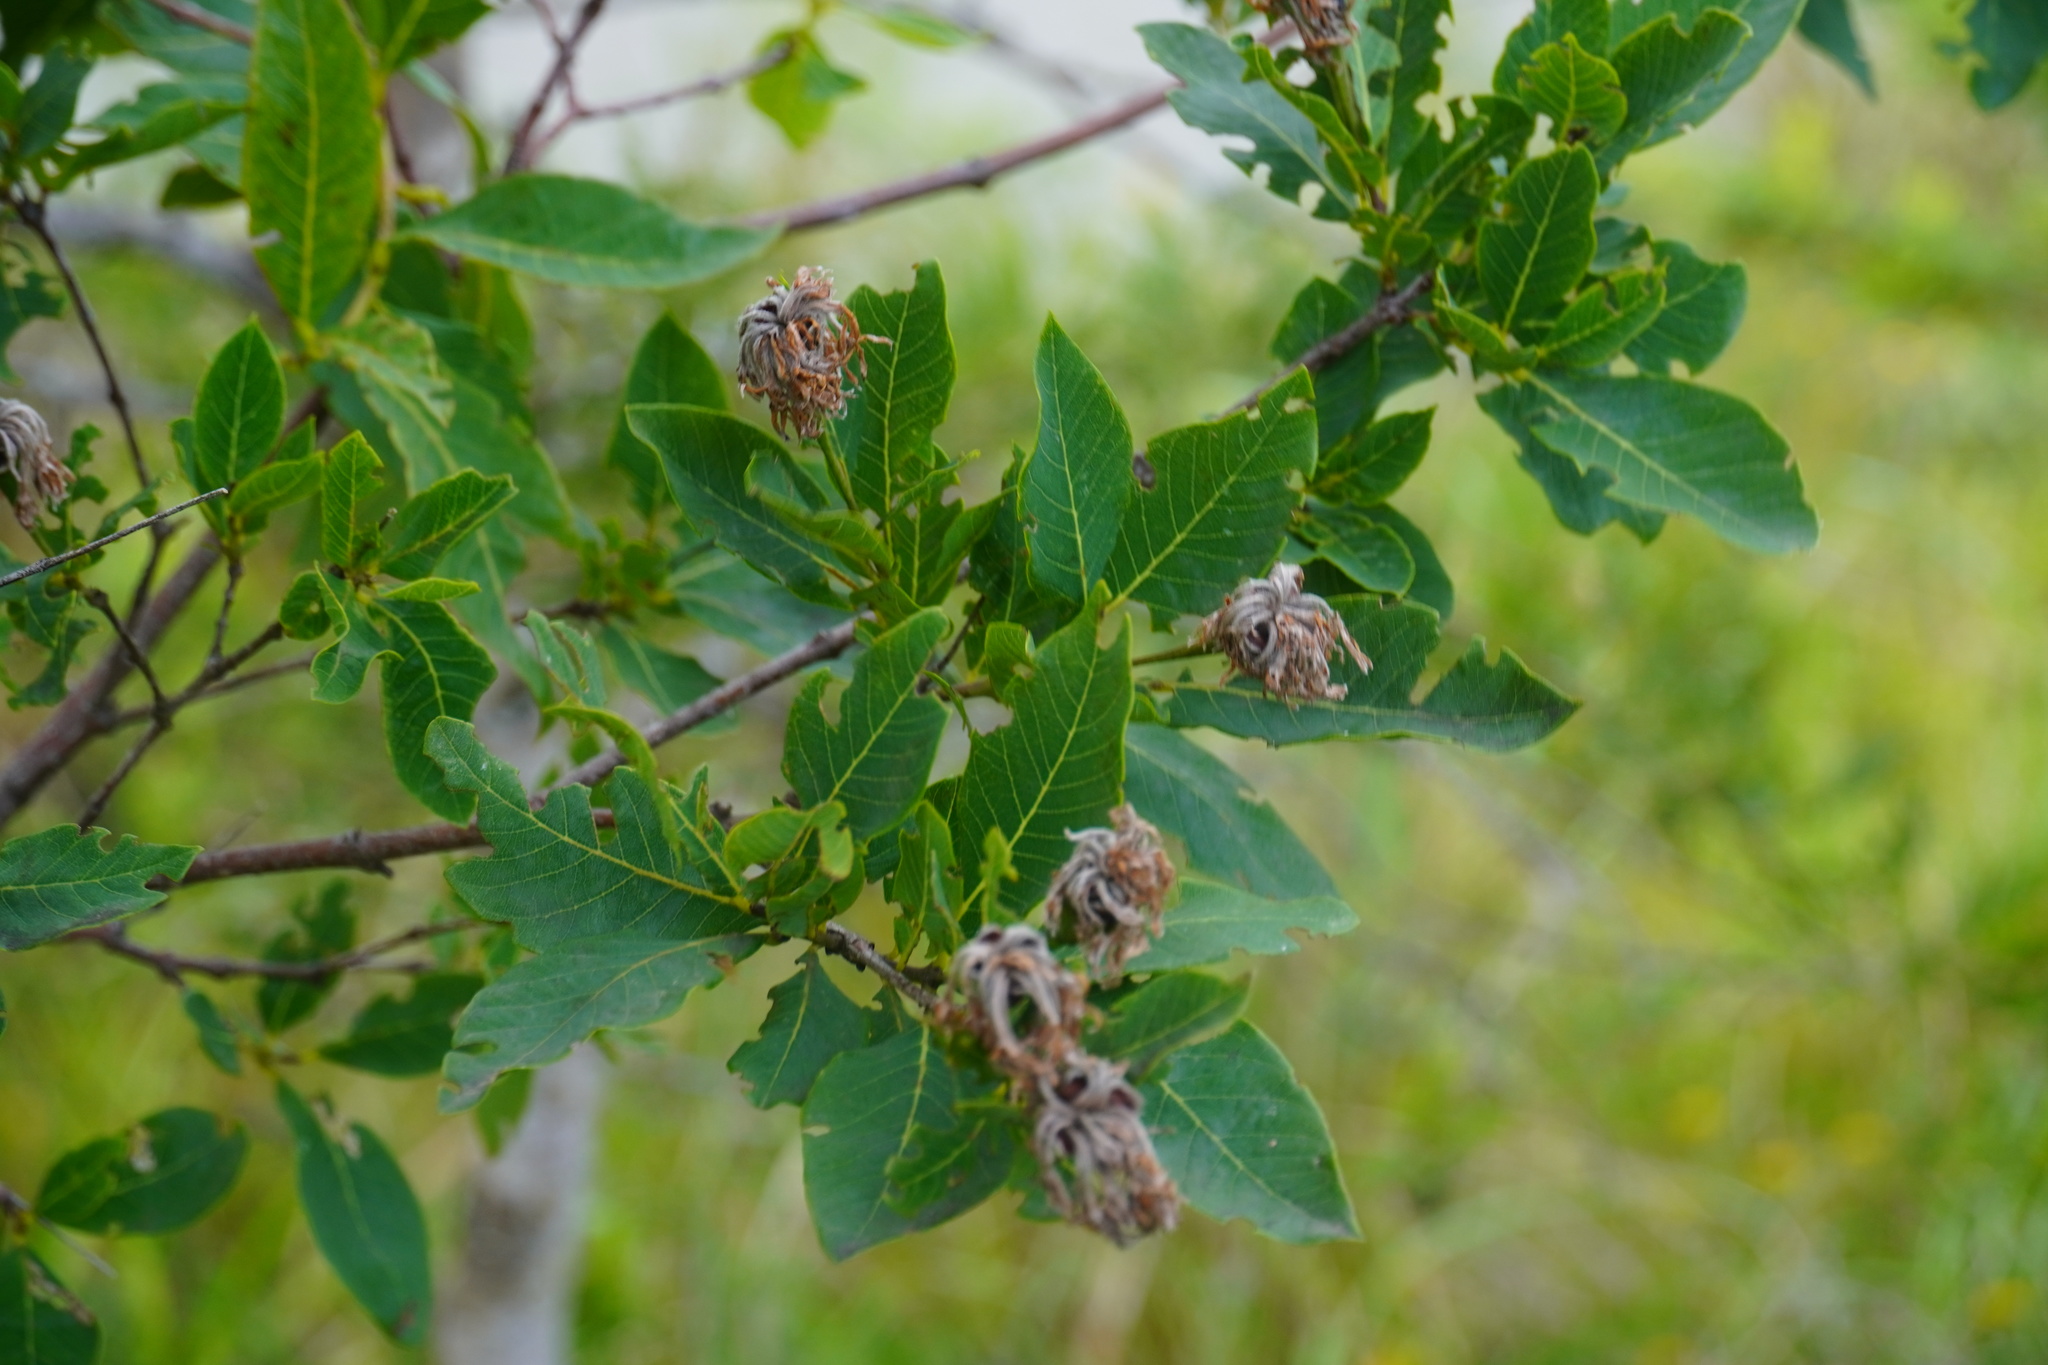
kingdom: Plantae
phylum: Tracheophyta
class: Magnoliopsida
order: Malvales
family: Thymelaeaceae
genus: Dais
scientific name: Dais cotinifolia
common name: Pompon tree
